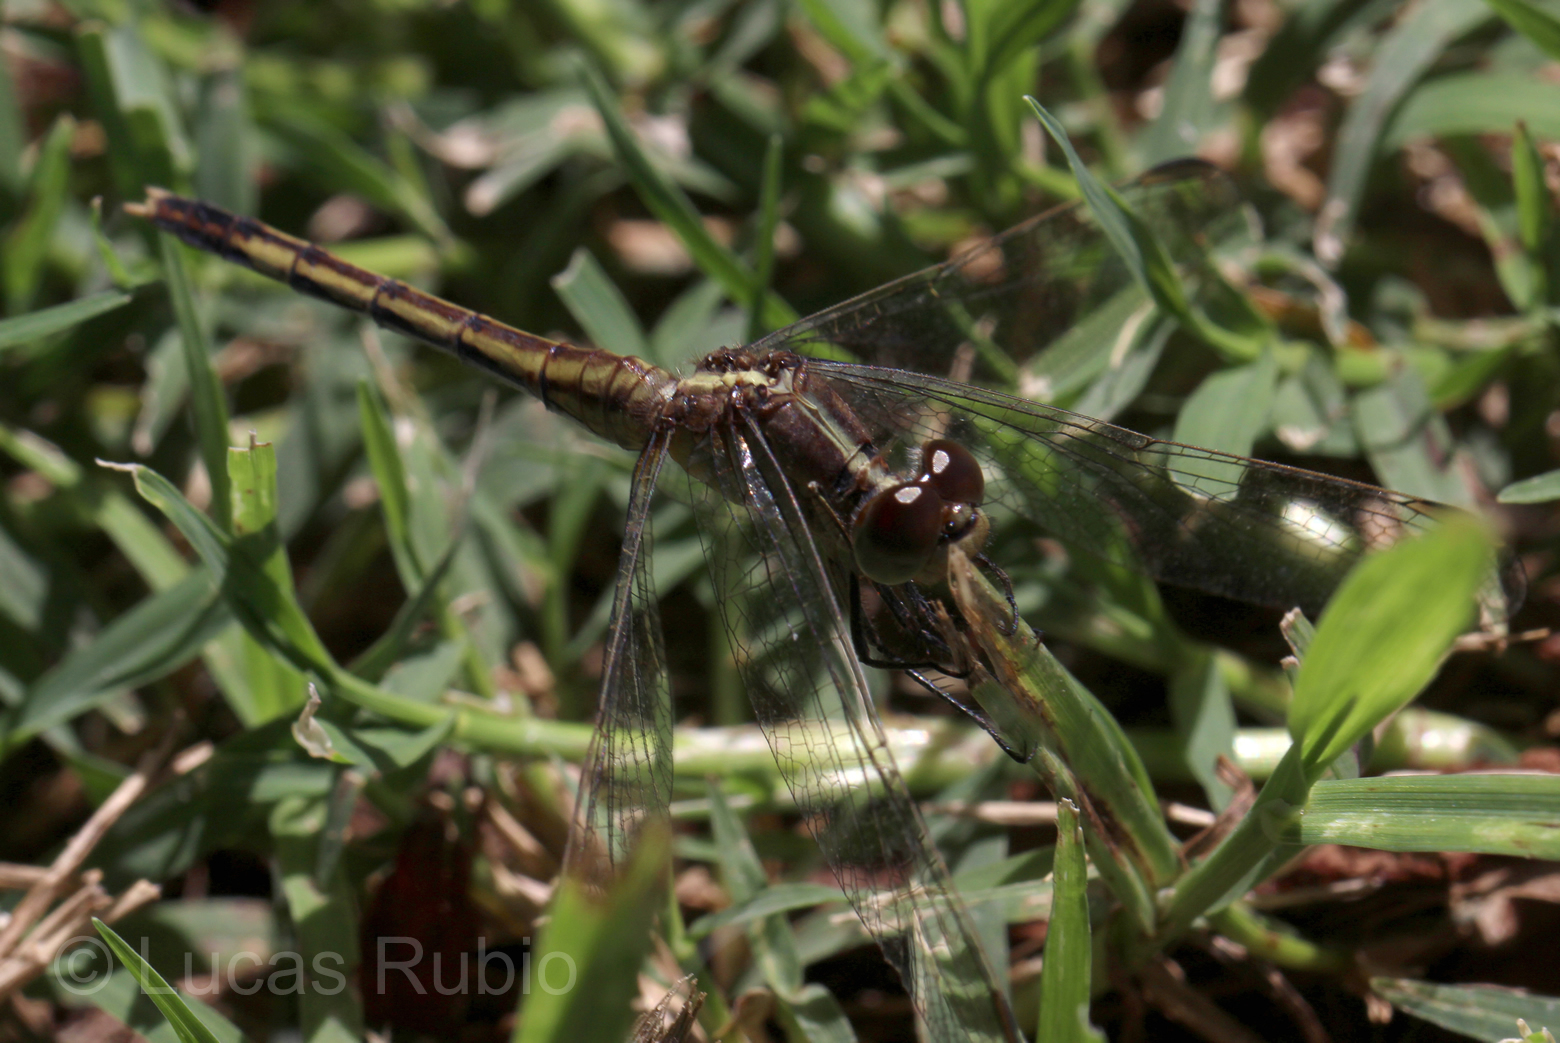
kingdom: Animalia
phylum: Arthropoda
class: Insecta
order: Odonata
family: Libellulidae
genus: Erythrodiplax
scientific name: Erythrodiplax nigricans
